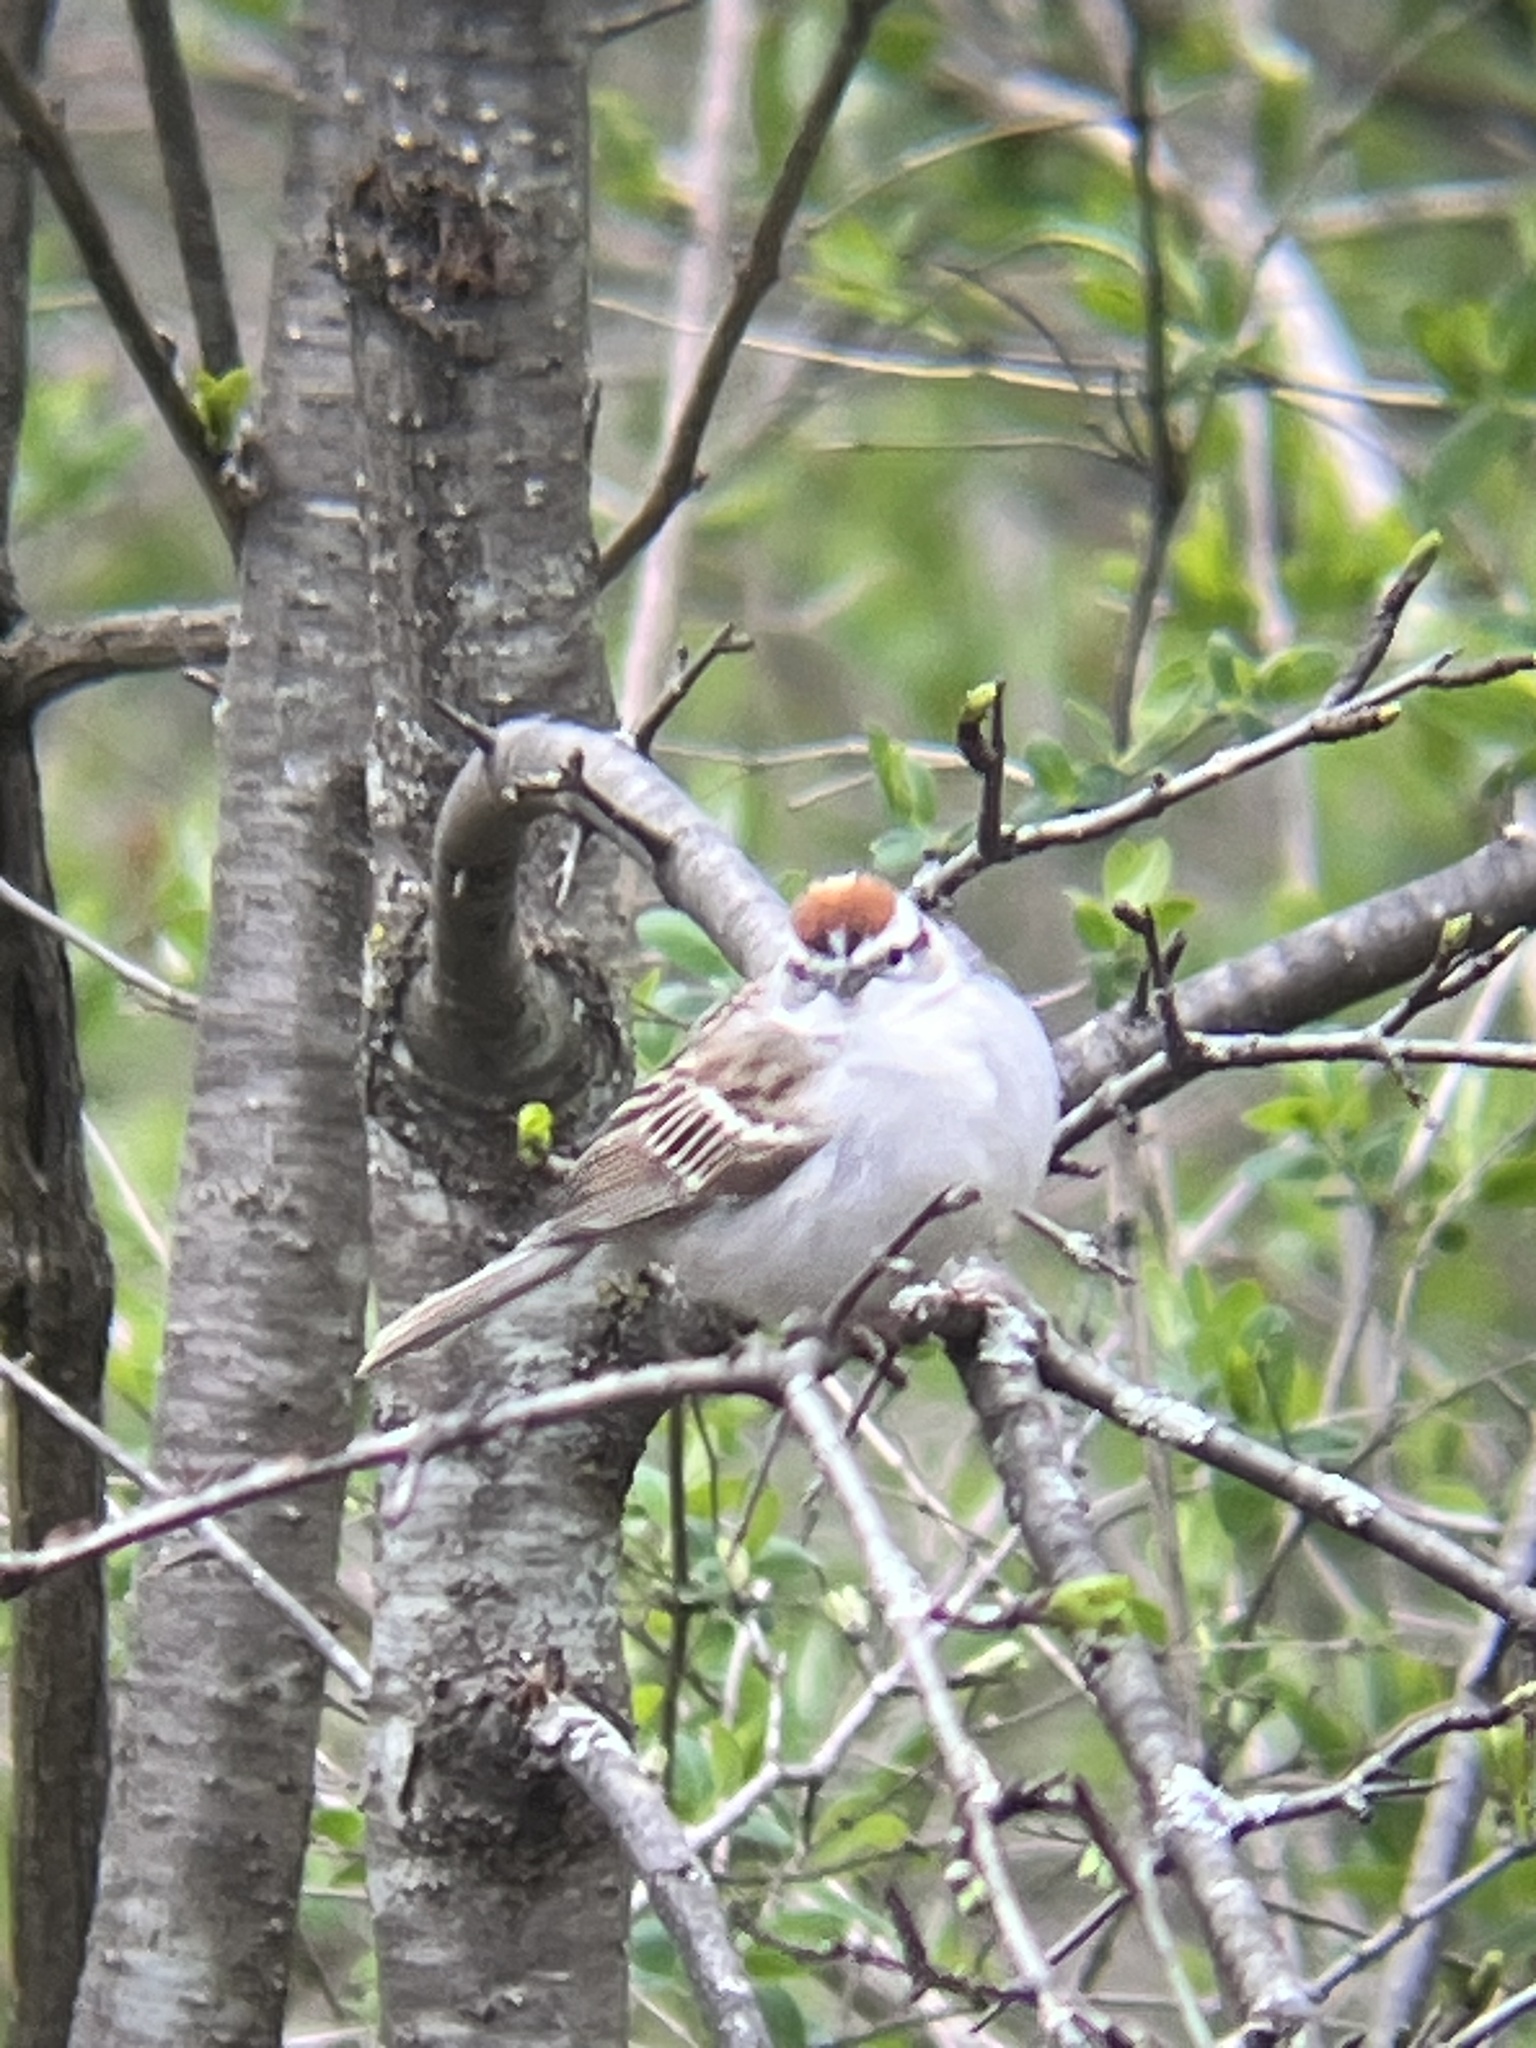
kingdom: Animalia
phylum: Chordata
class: Aves
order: Passeriformes
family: Passerellidae
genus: Spizella
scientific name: Spizella passerina
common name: Chipping sparrow
